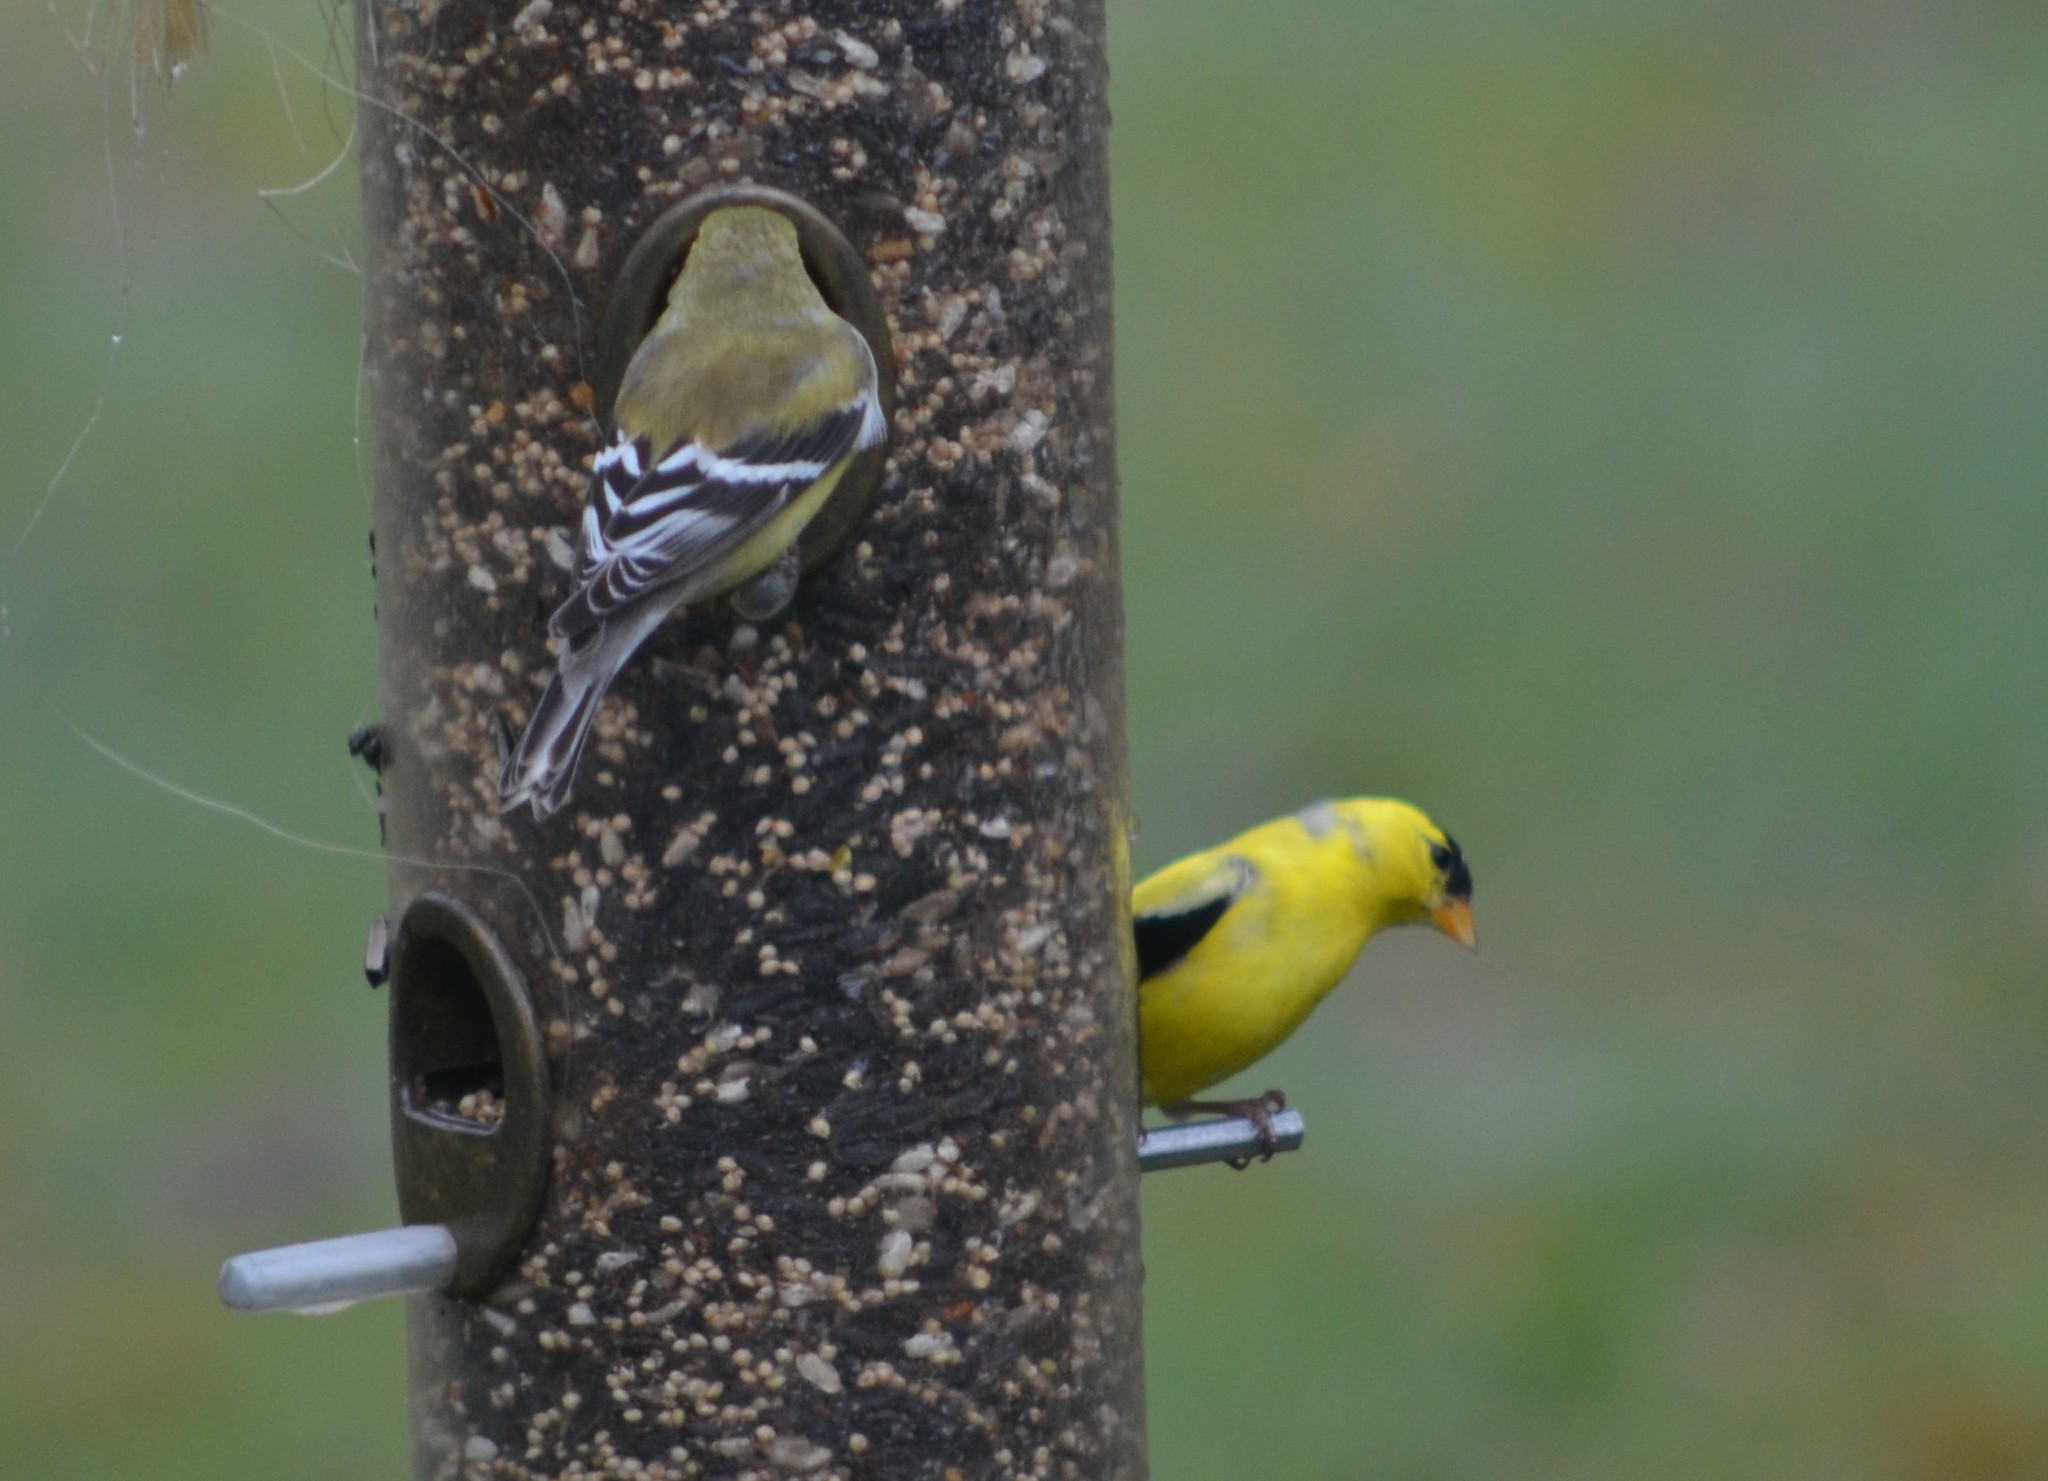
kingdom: Animalia
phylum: Chordata
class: Aves
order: Passeriformes
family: Fringillidae
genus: Spinus
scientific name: Spinus tristis
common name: American goldfinch
